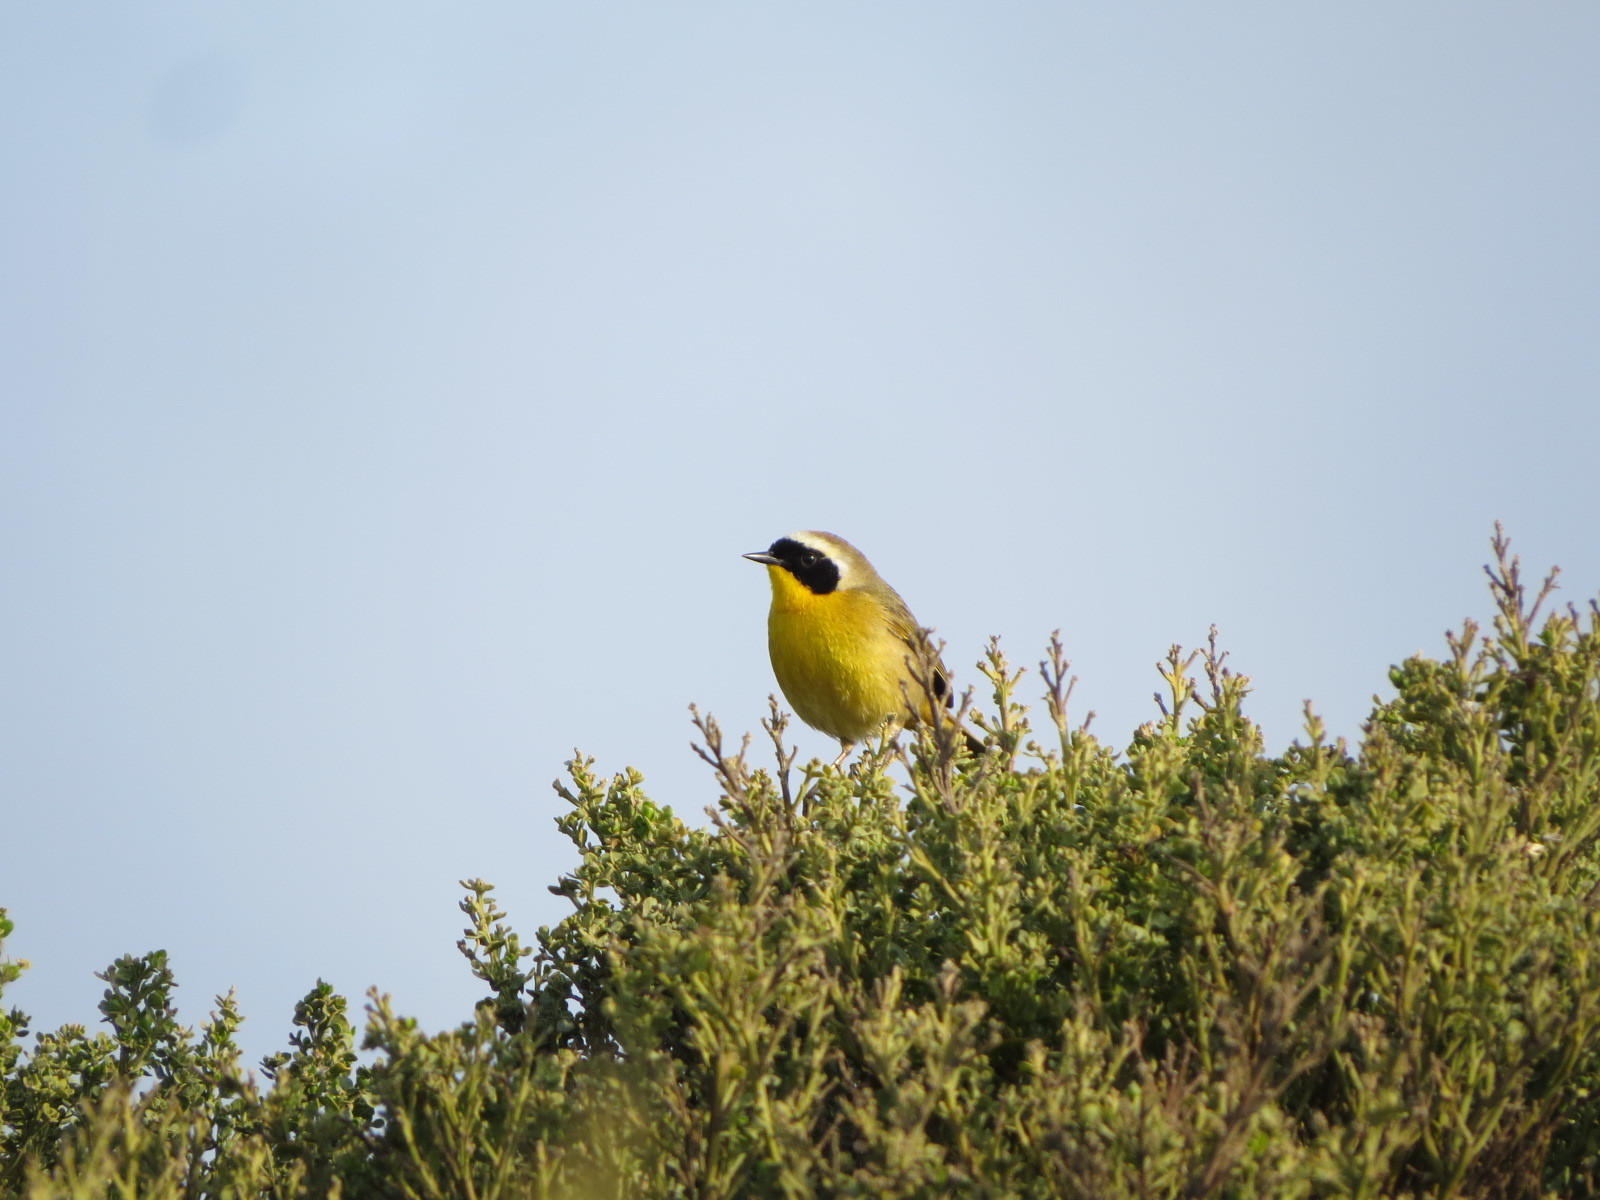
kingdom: Animalia
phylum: Chordata
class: Aves
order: Passeriformes
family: Parulidae
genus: Geothlypis
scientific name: Geothlypis trichas
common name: Common yellowthroat
